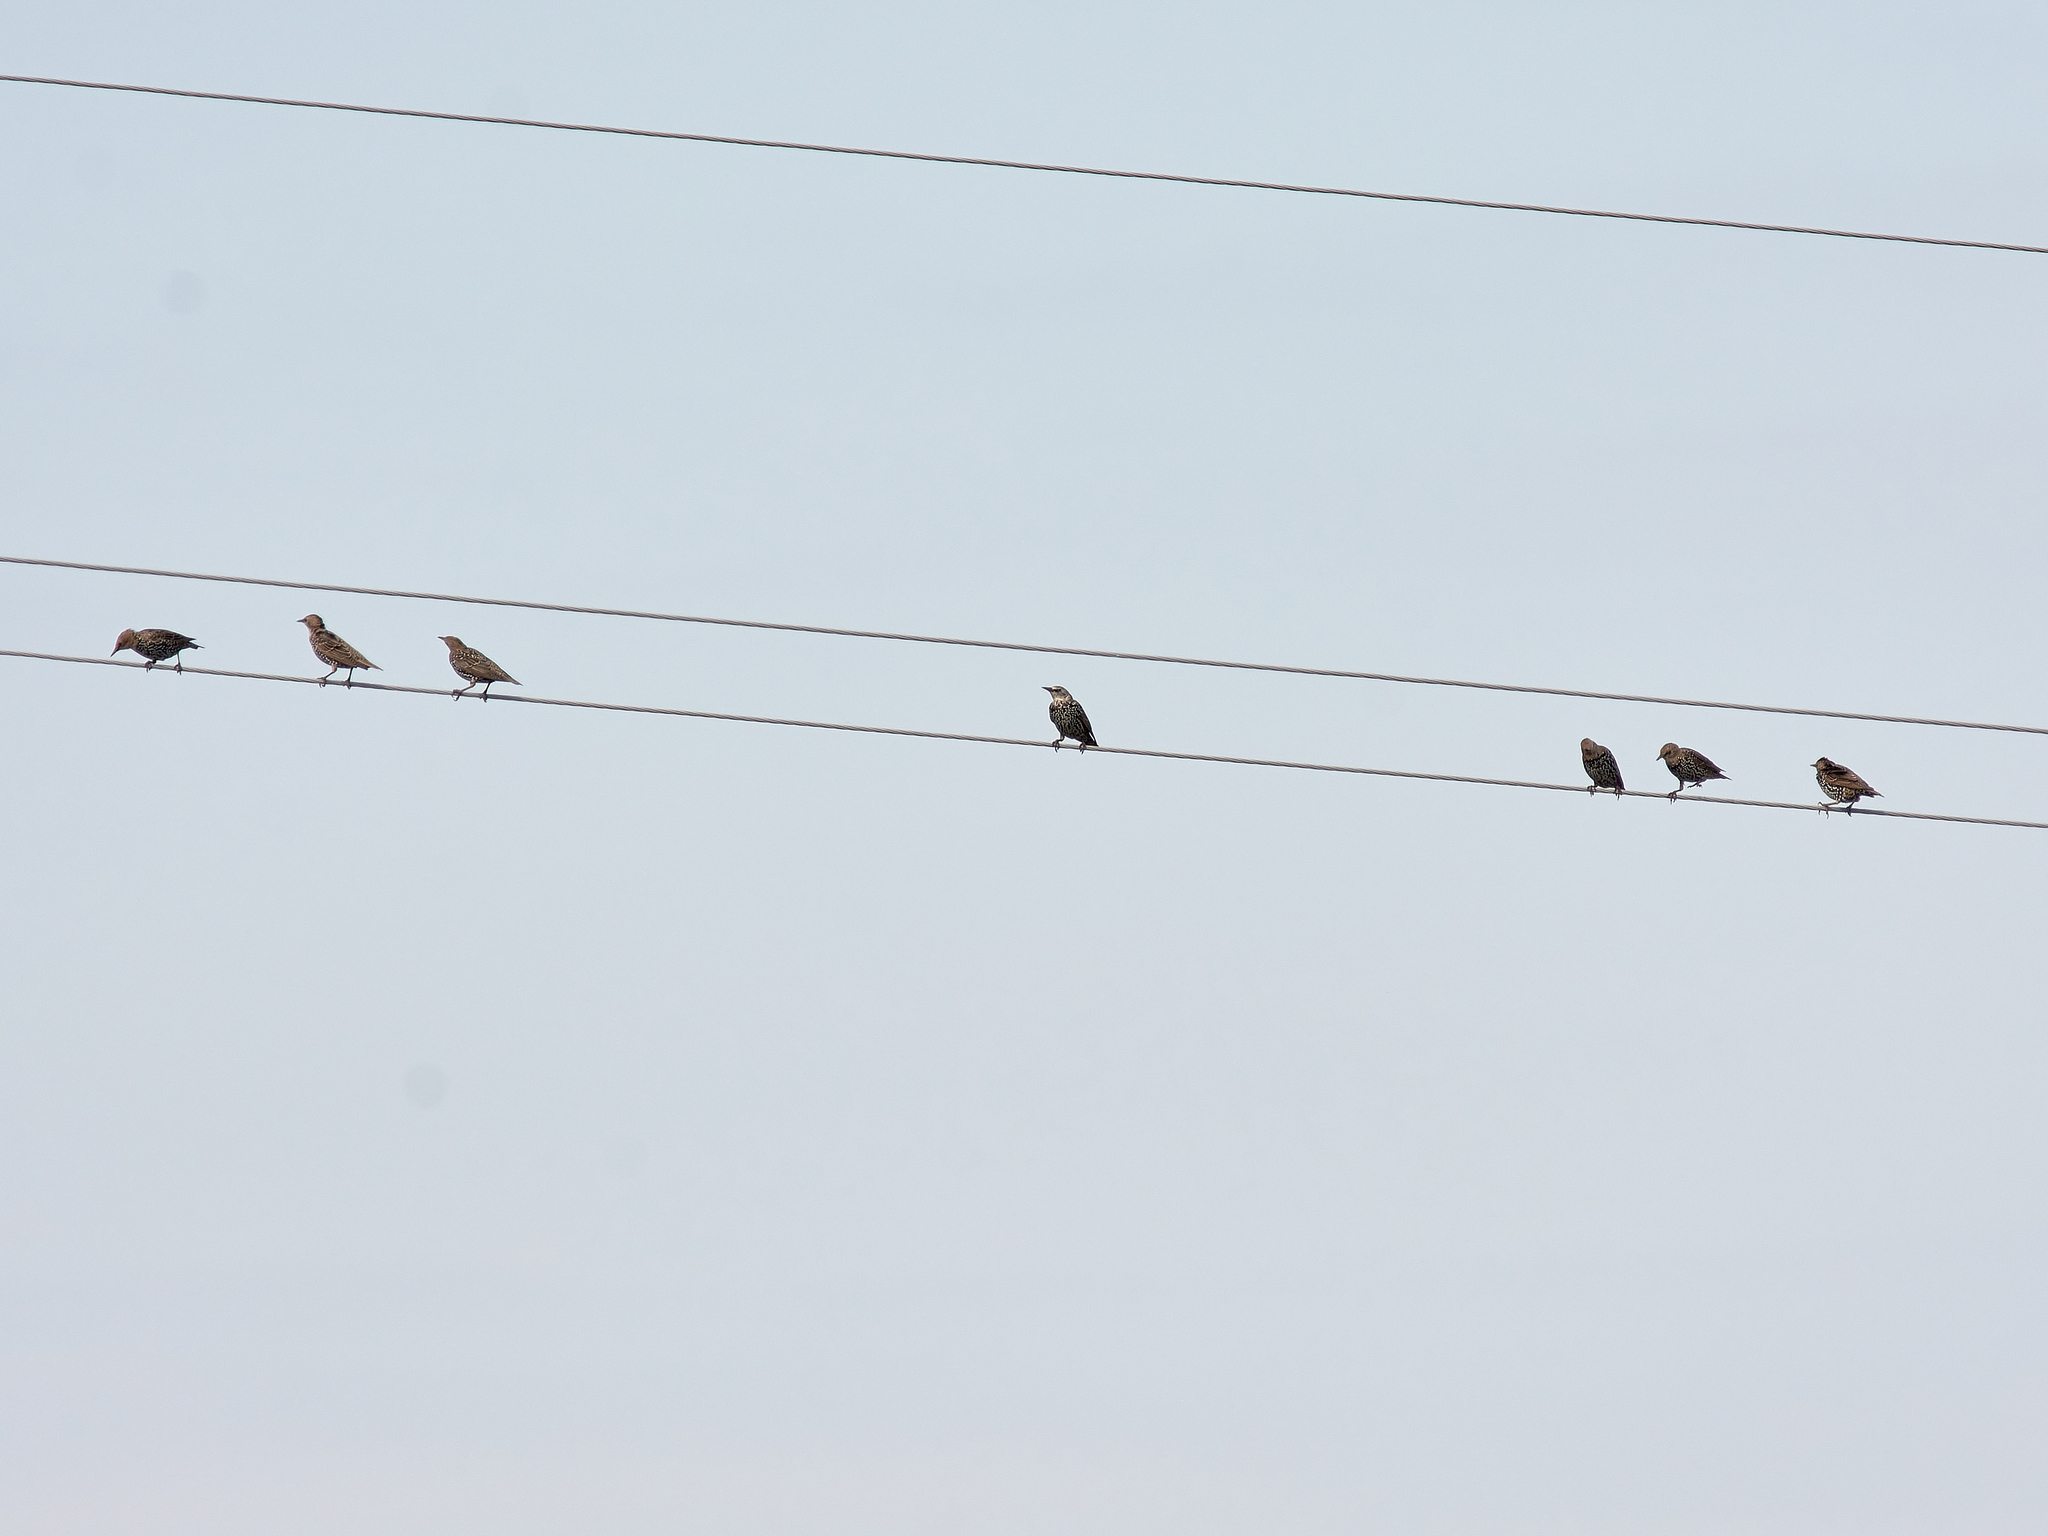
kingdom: Animalia
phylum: Chordata
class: Aves
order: Passeriformes
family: Sturnidae
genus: Sturnus
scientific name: Sturnus vulgaris
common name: Common starling
